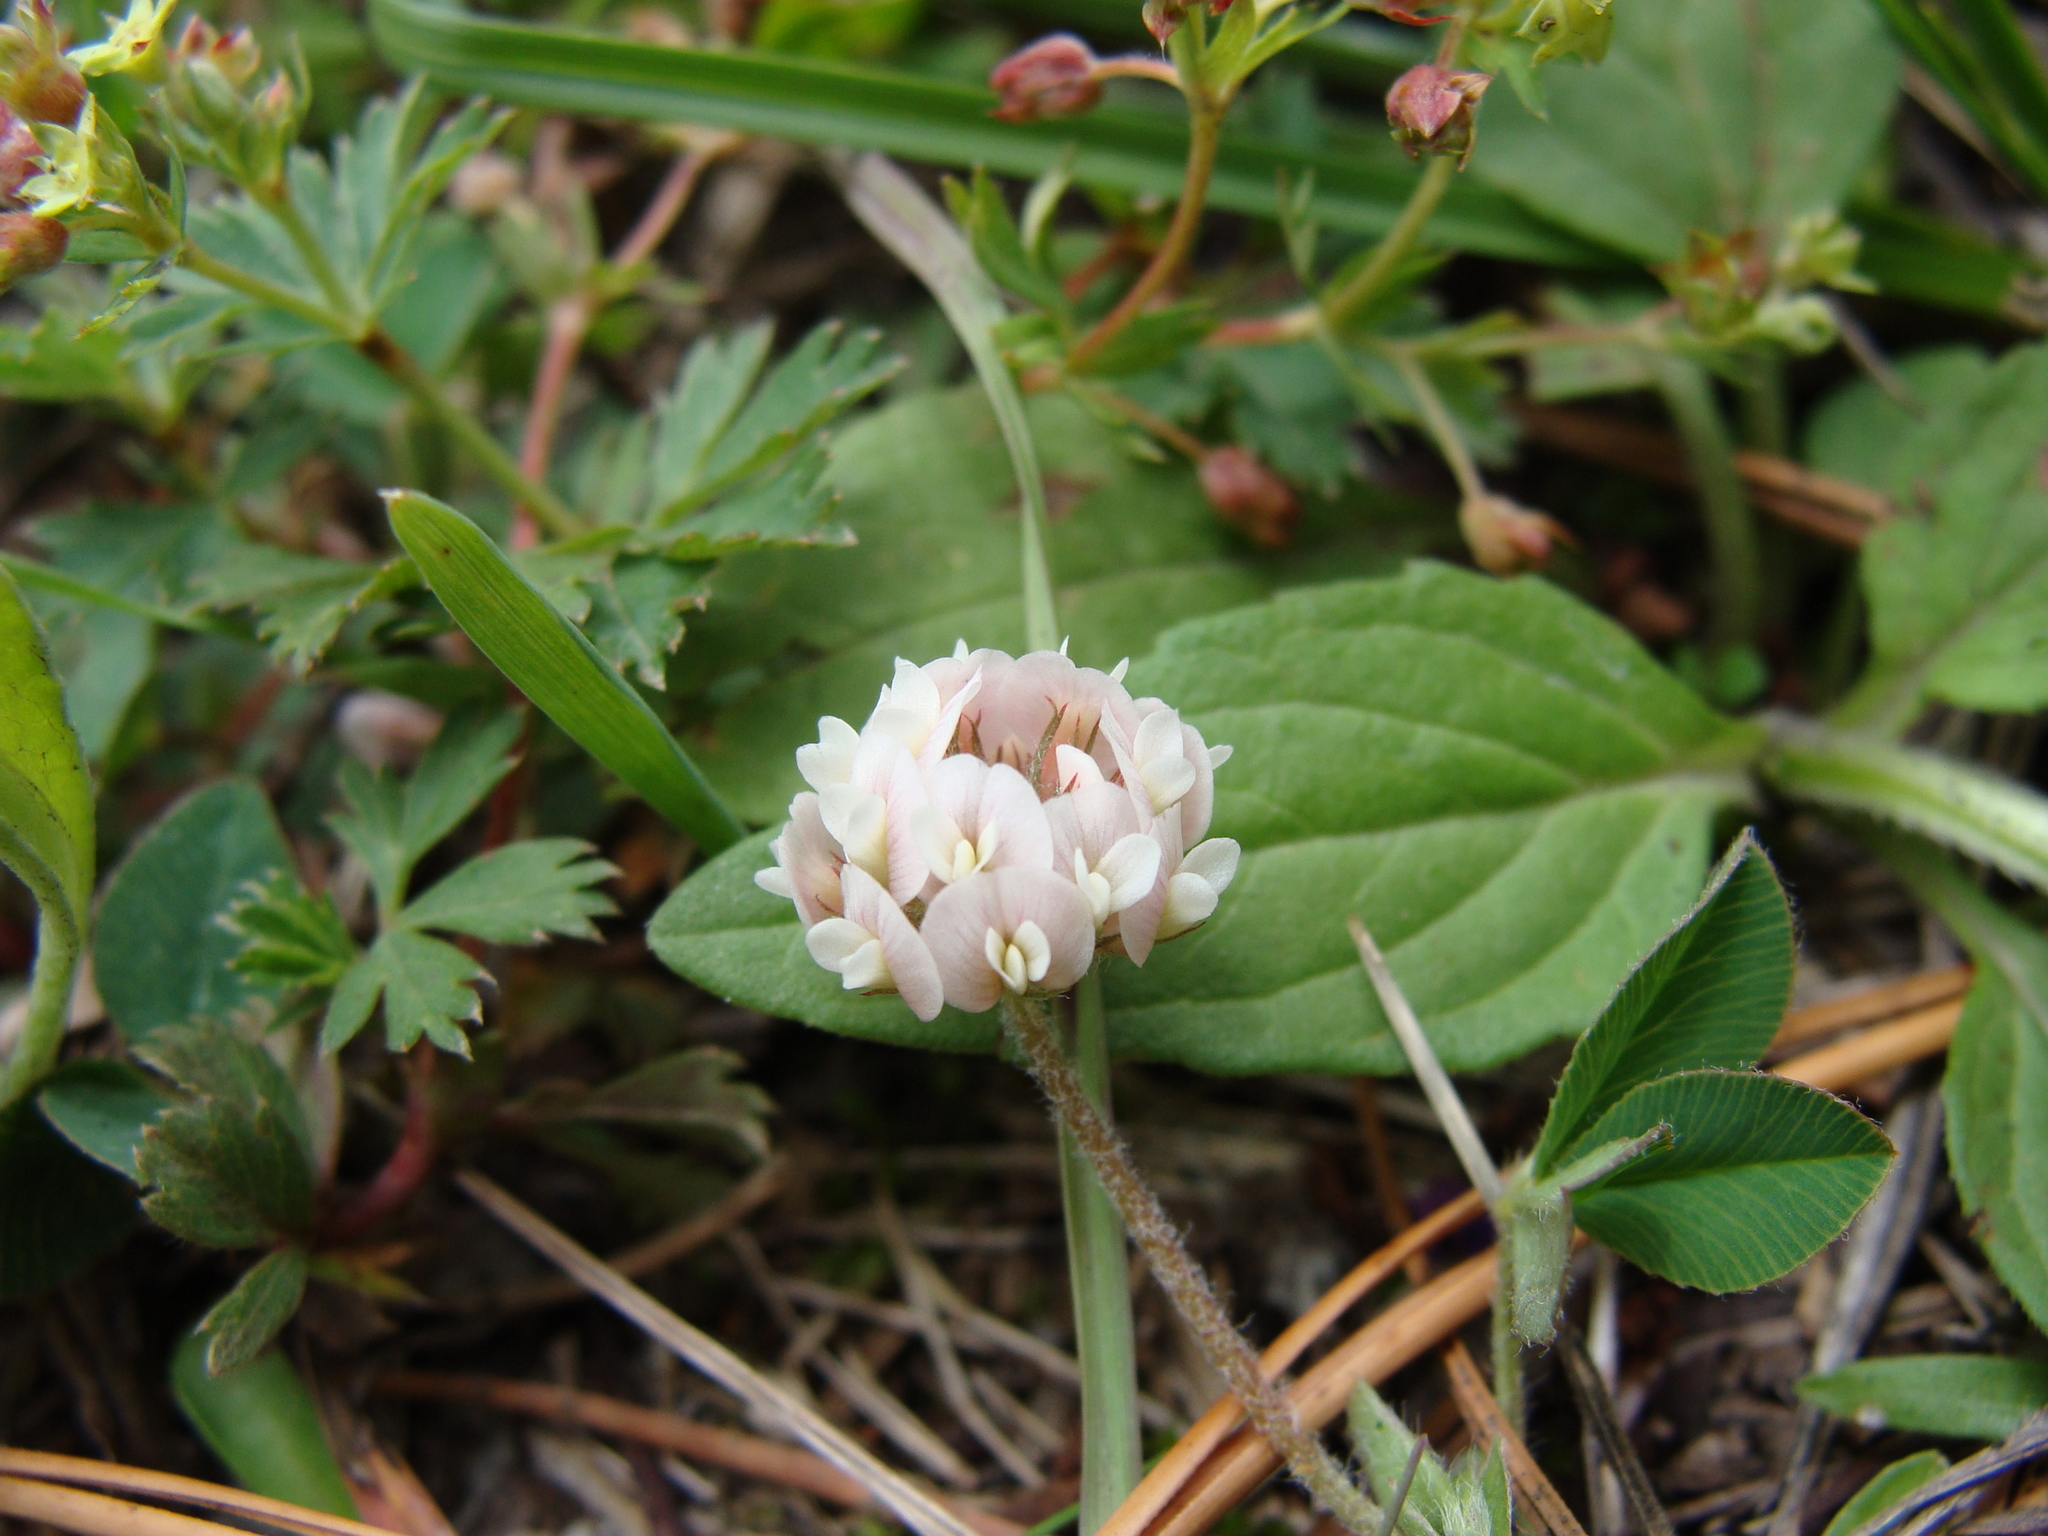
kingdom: Plantae
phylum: Tracheophyta
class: Magnoliopsida
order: Fabales
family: Fabaceae
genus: Trifolium
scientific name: Trifolium amabile
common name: Aztec clover
